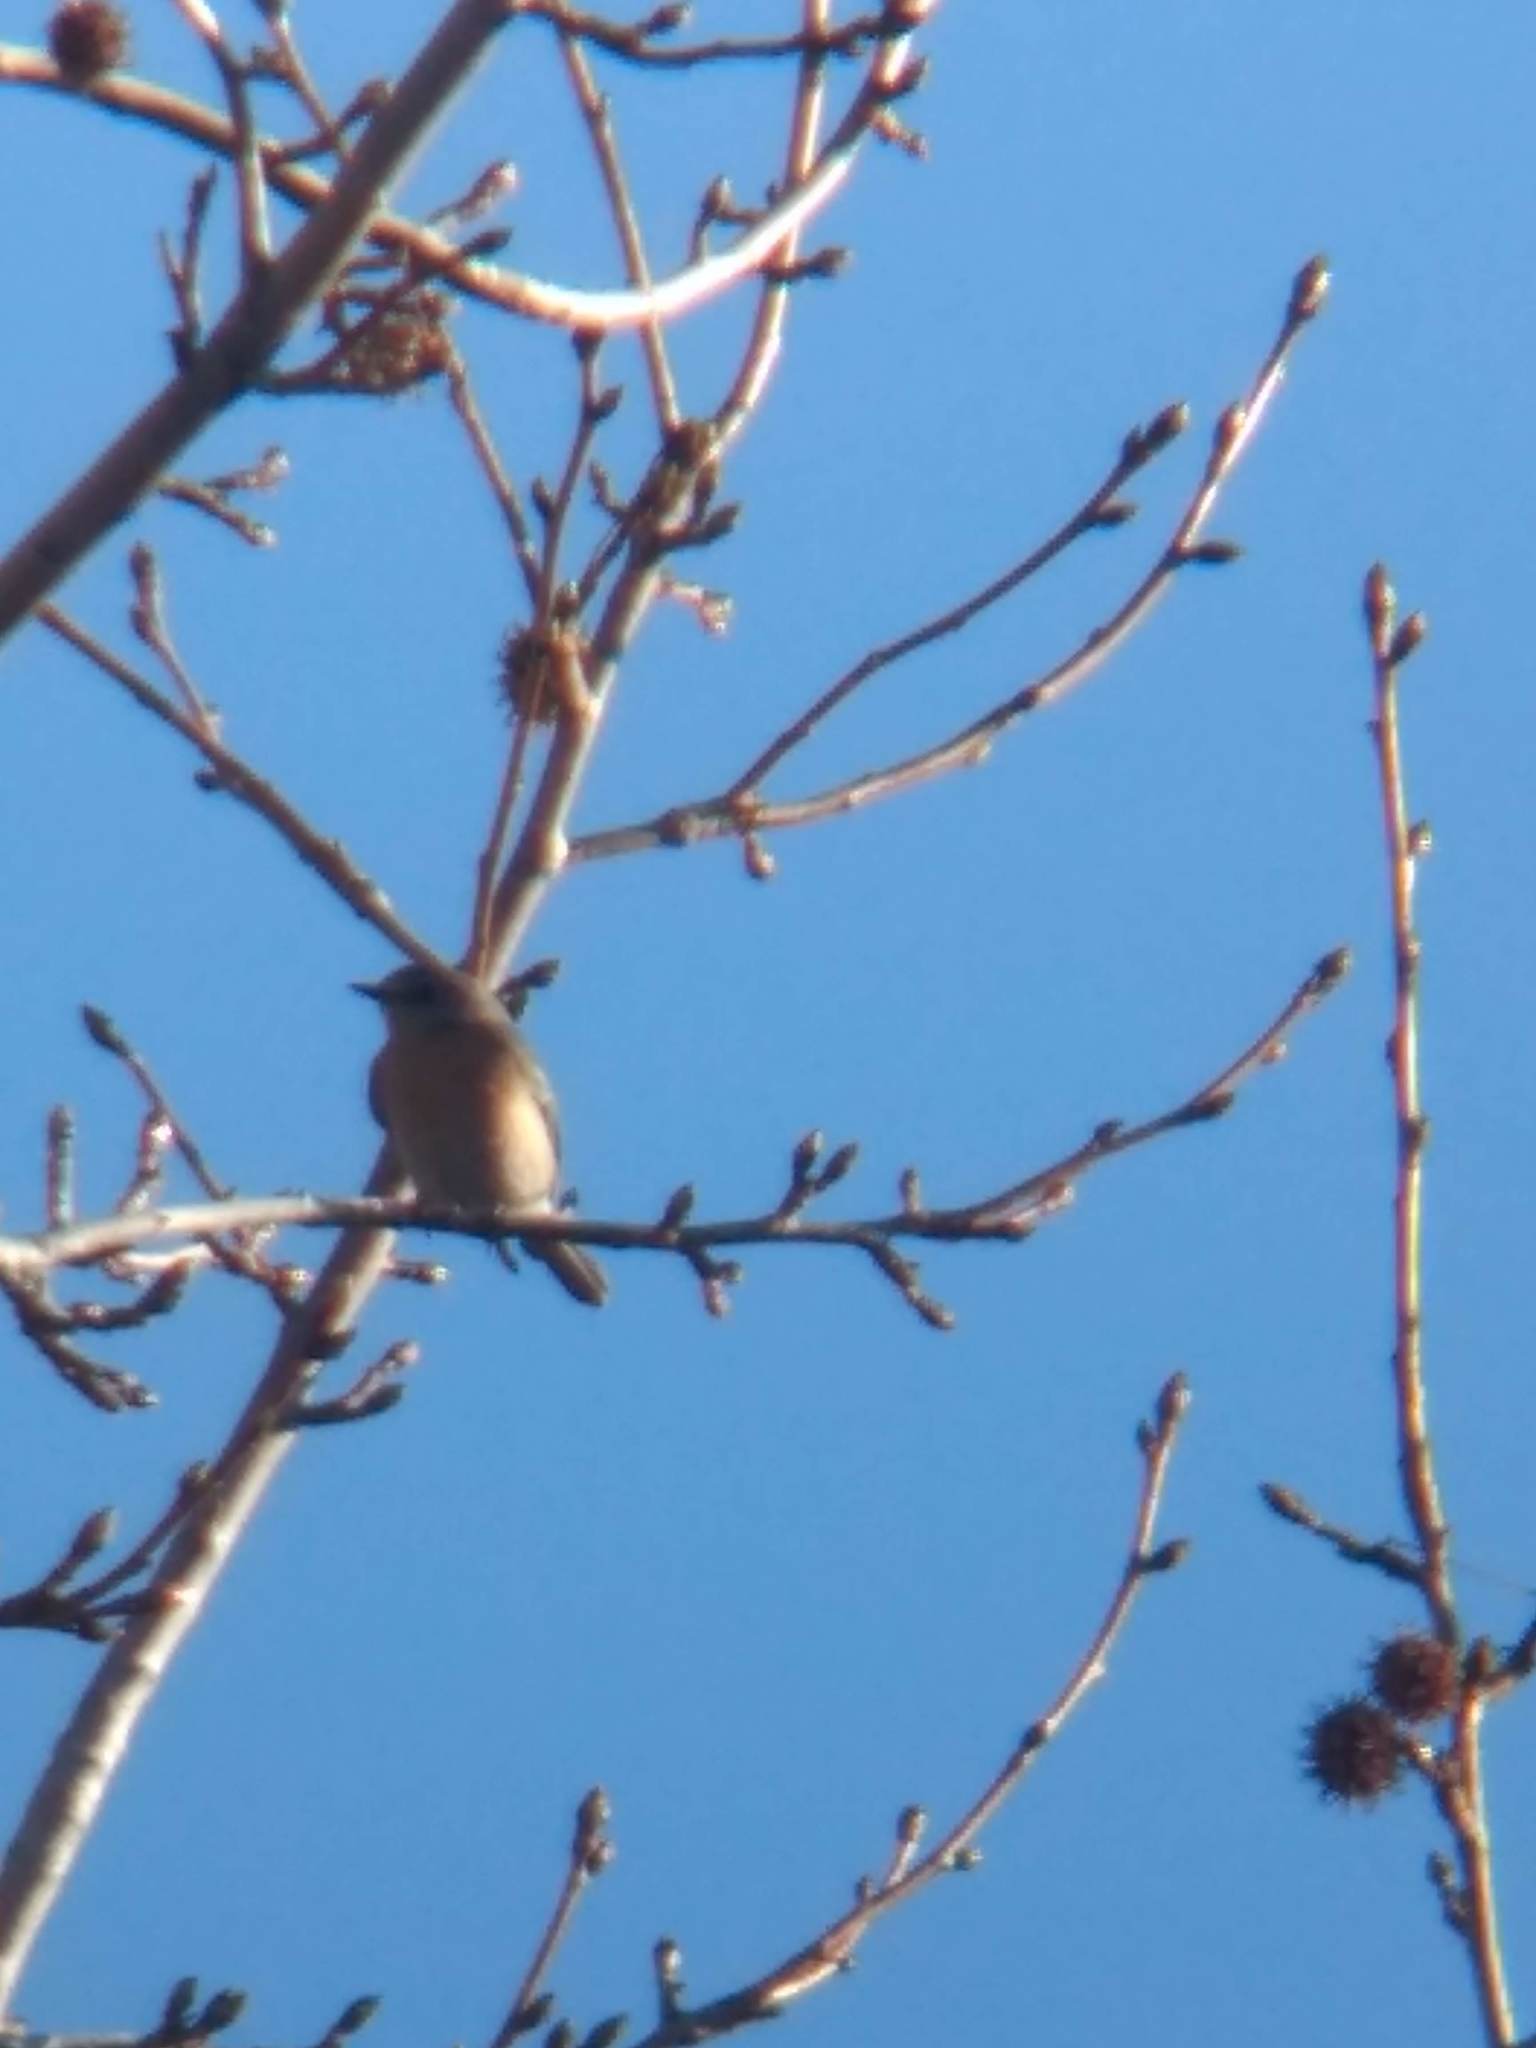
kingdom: Animalia
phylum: Chordata
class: Aves
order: Passeriformes
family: Turdidae
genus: Sialia
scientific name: Sialia mexicana
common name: Western bluebird
